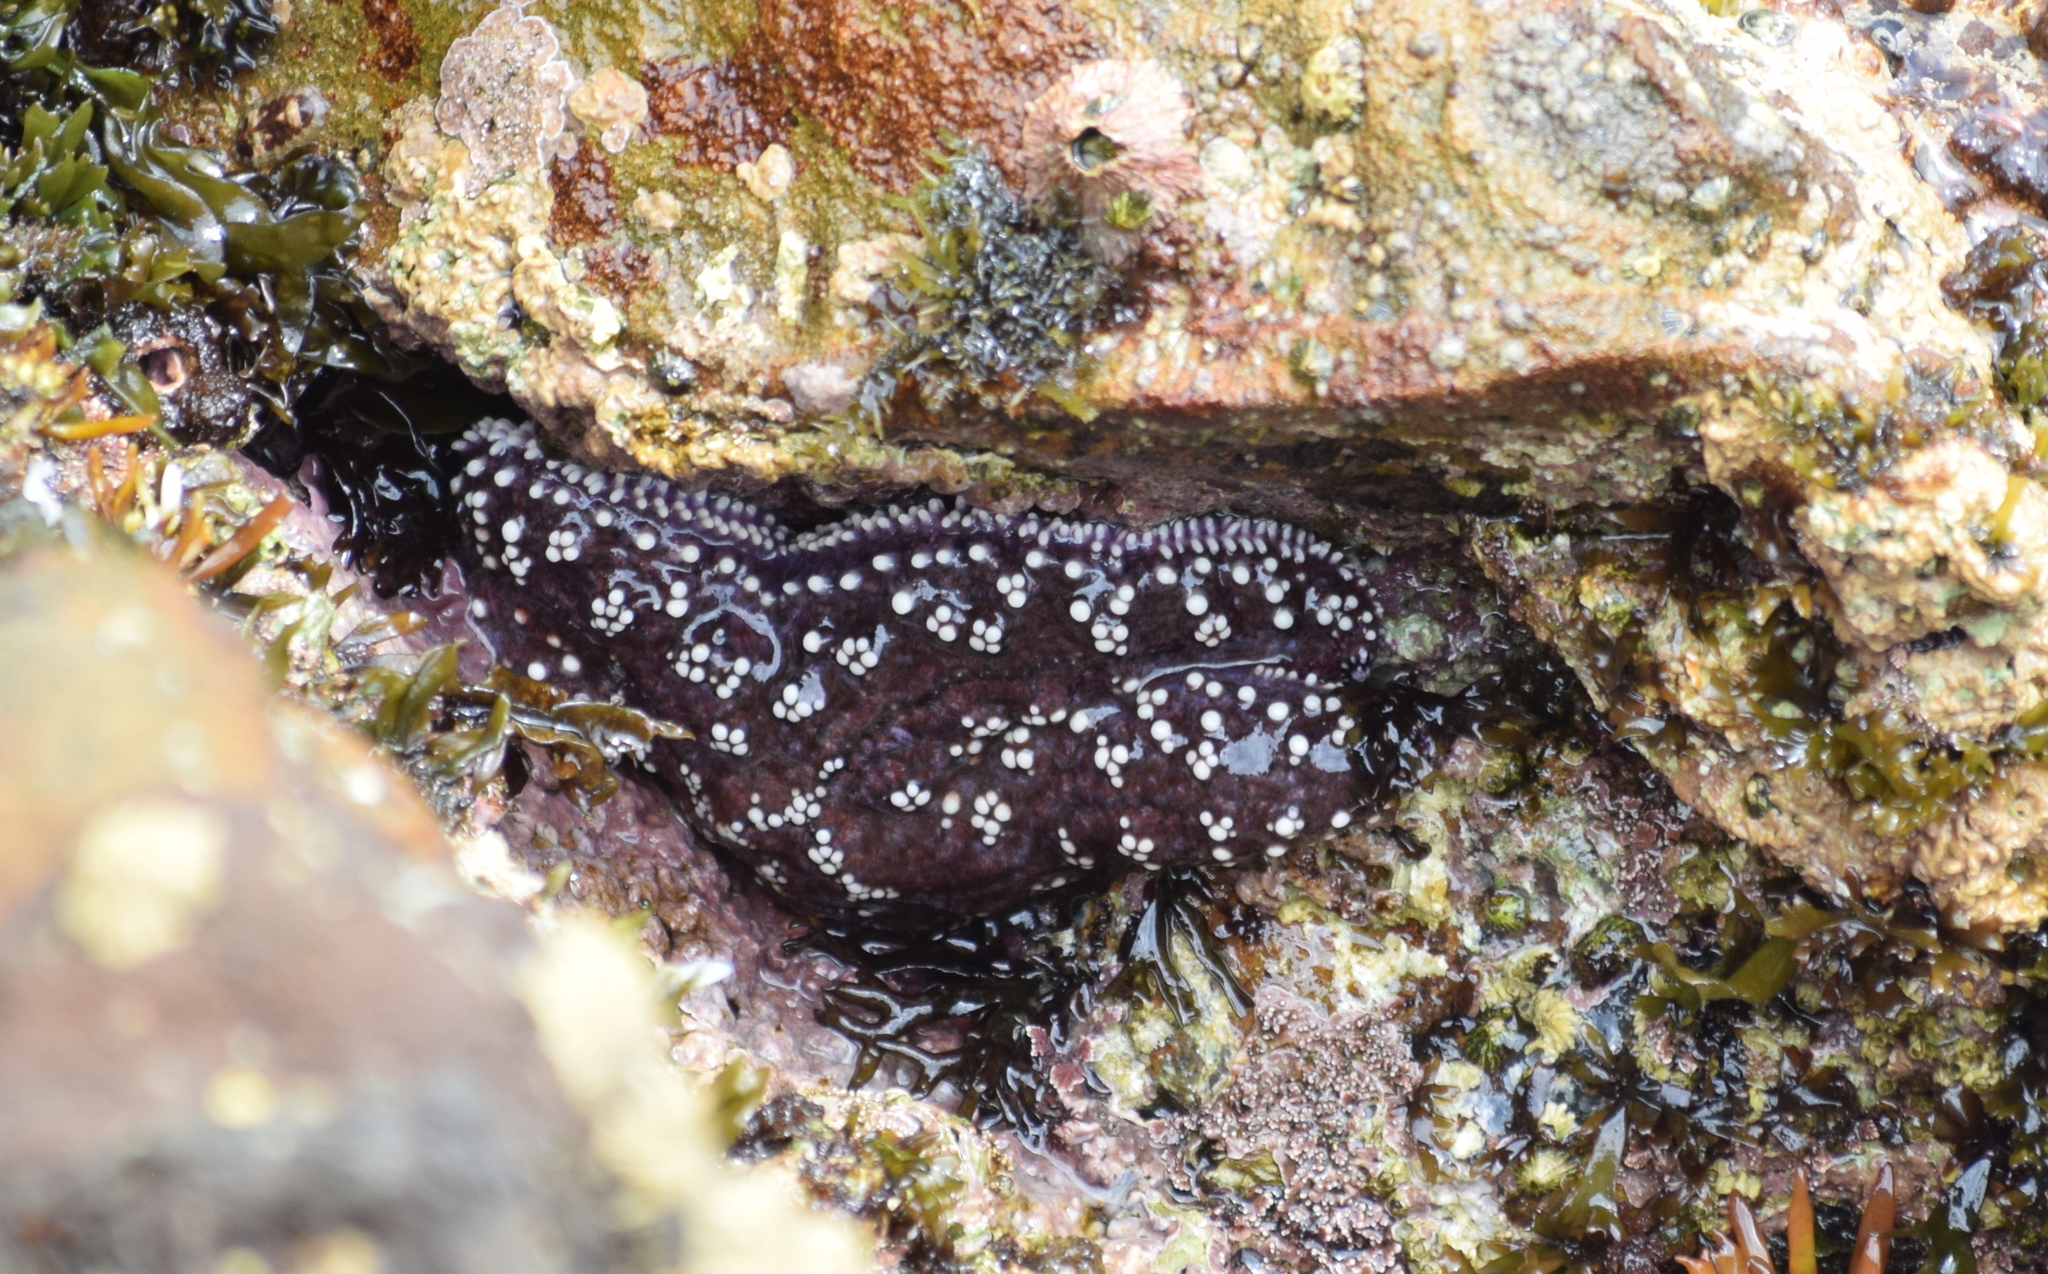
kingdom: Animalia
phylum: Echinodermata
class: Asteroidea
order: Forcipulatida
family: Asteriidae
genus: Pisaster
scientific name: Pisaster ochraceus
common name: Ochre stars
